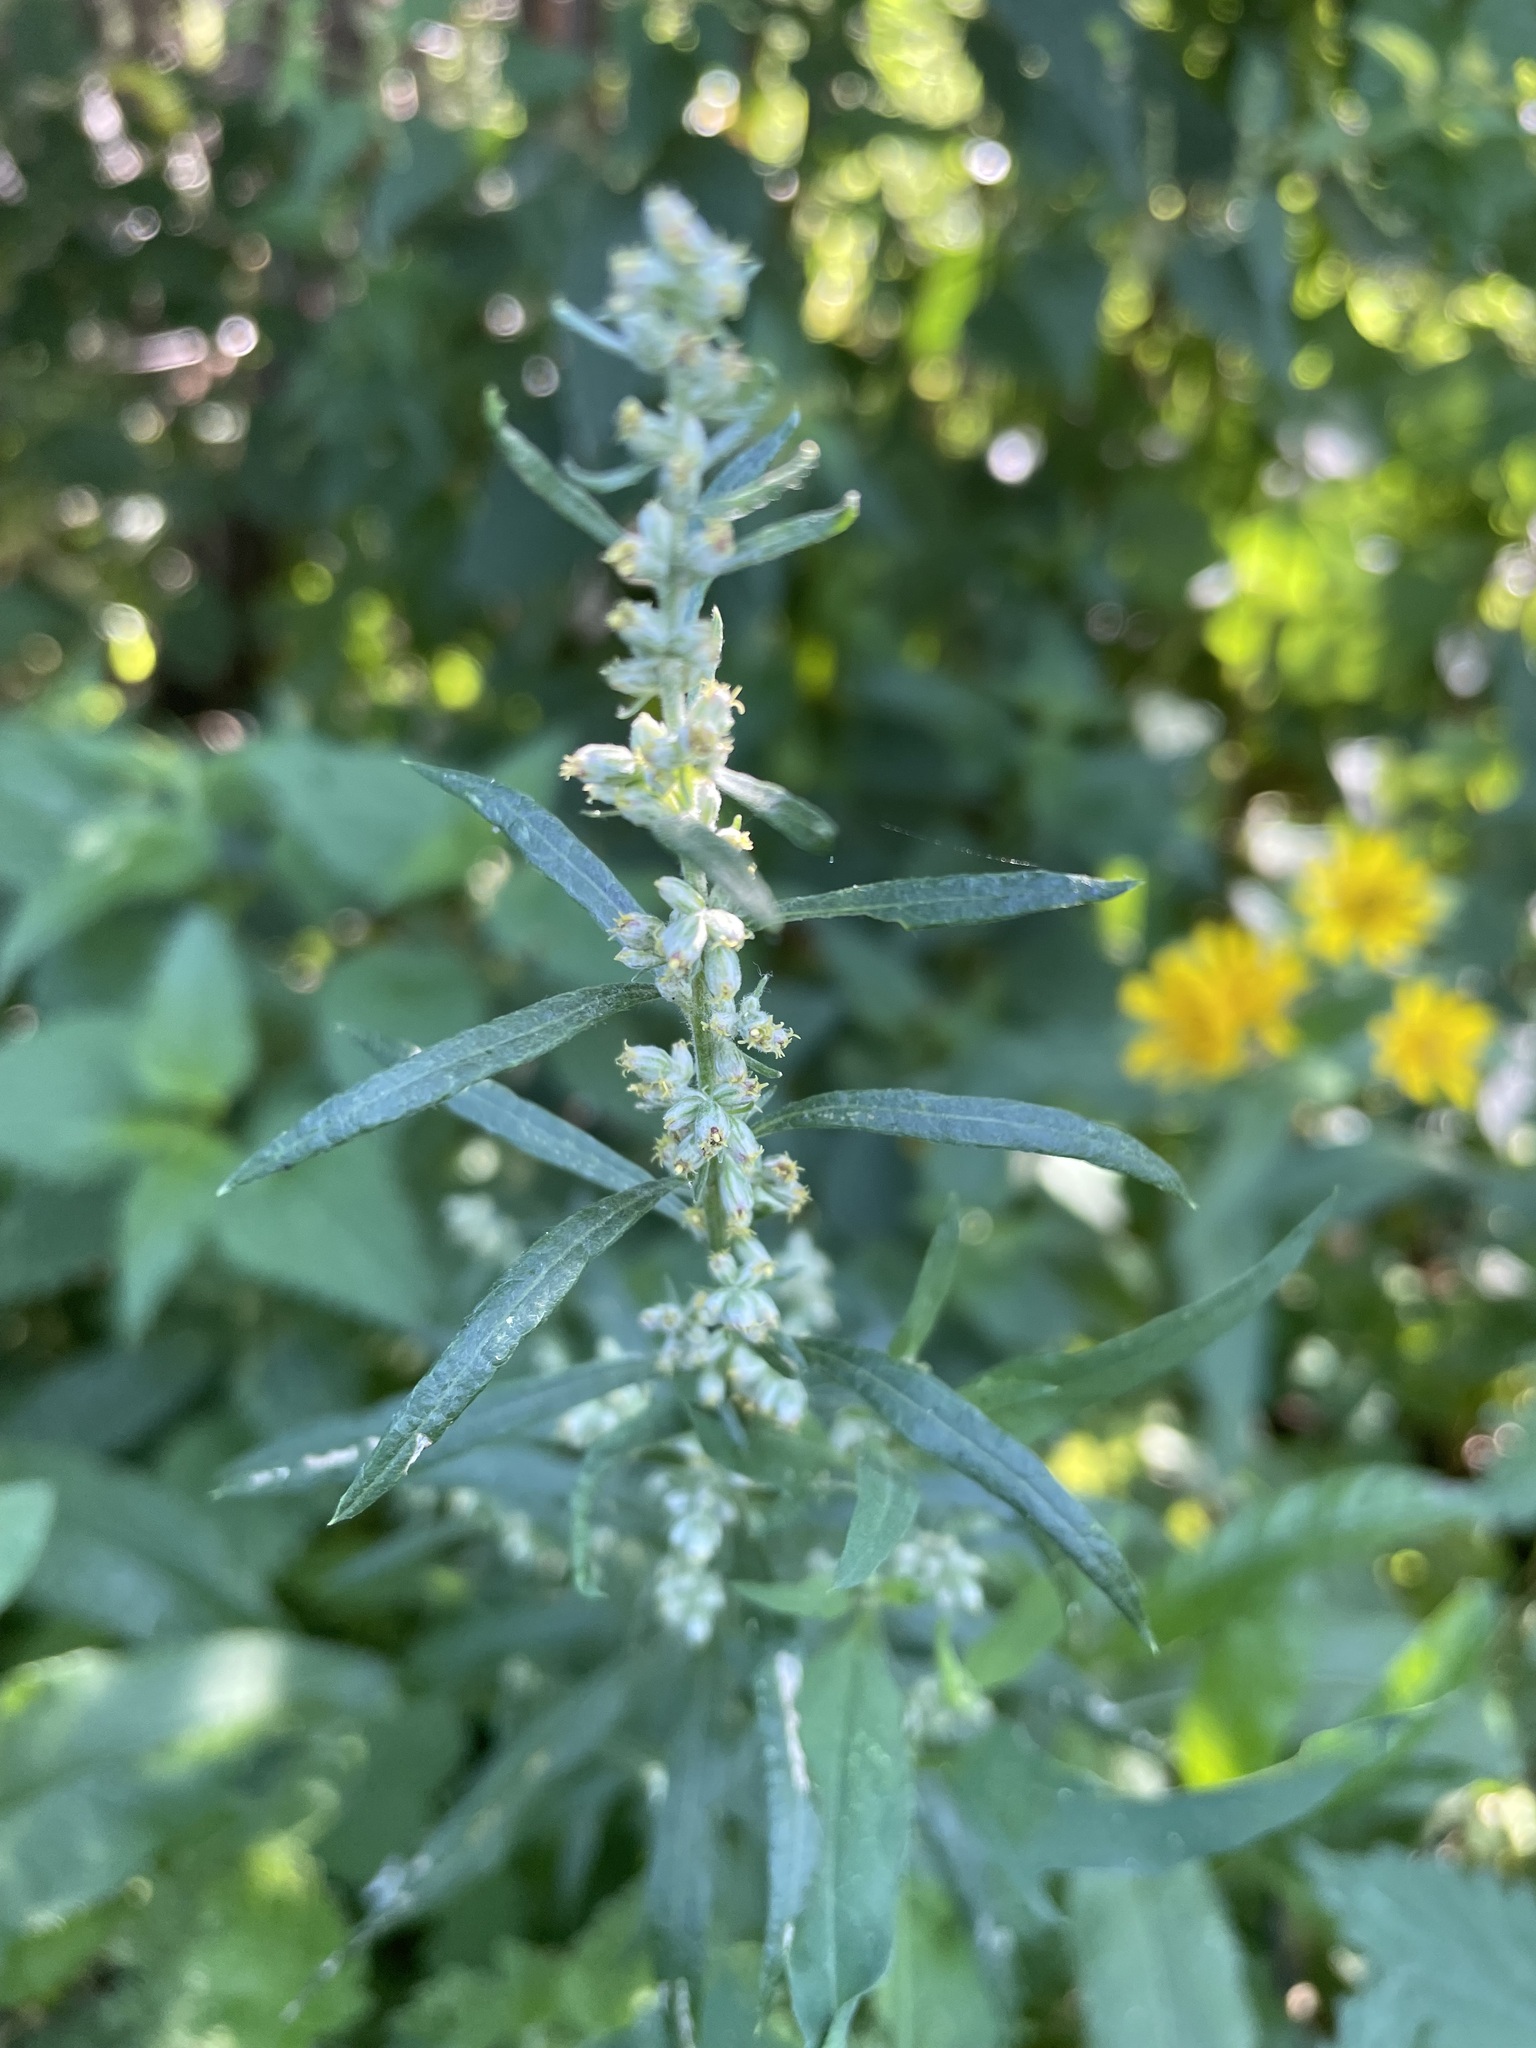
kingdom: Plantae
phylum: Tracheophyta
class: Magnoliopsida
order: Asterales
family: Asteraceae
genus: Artemisia
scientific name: Artemisia vulgaris
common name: Mugwort
